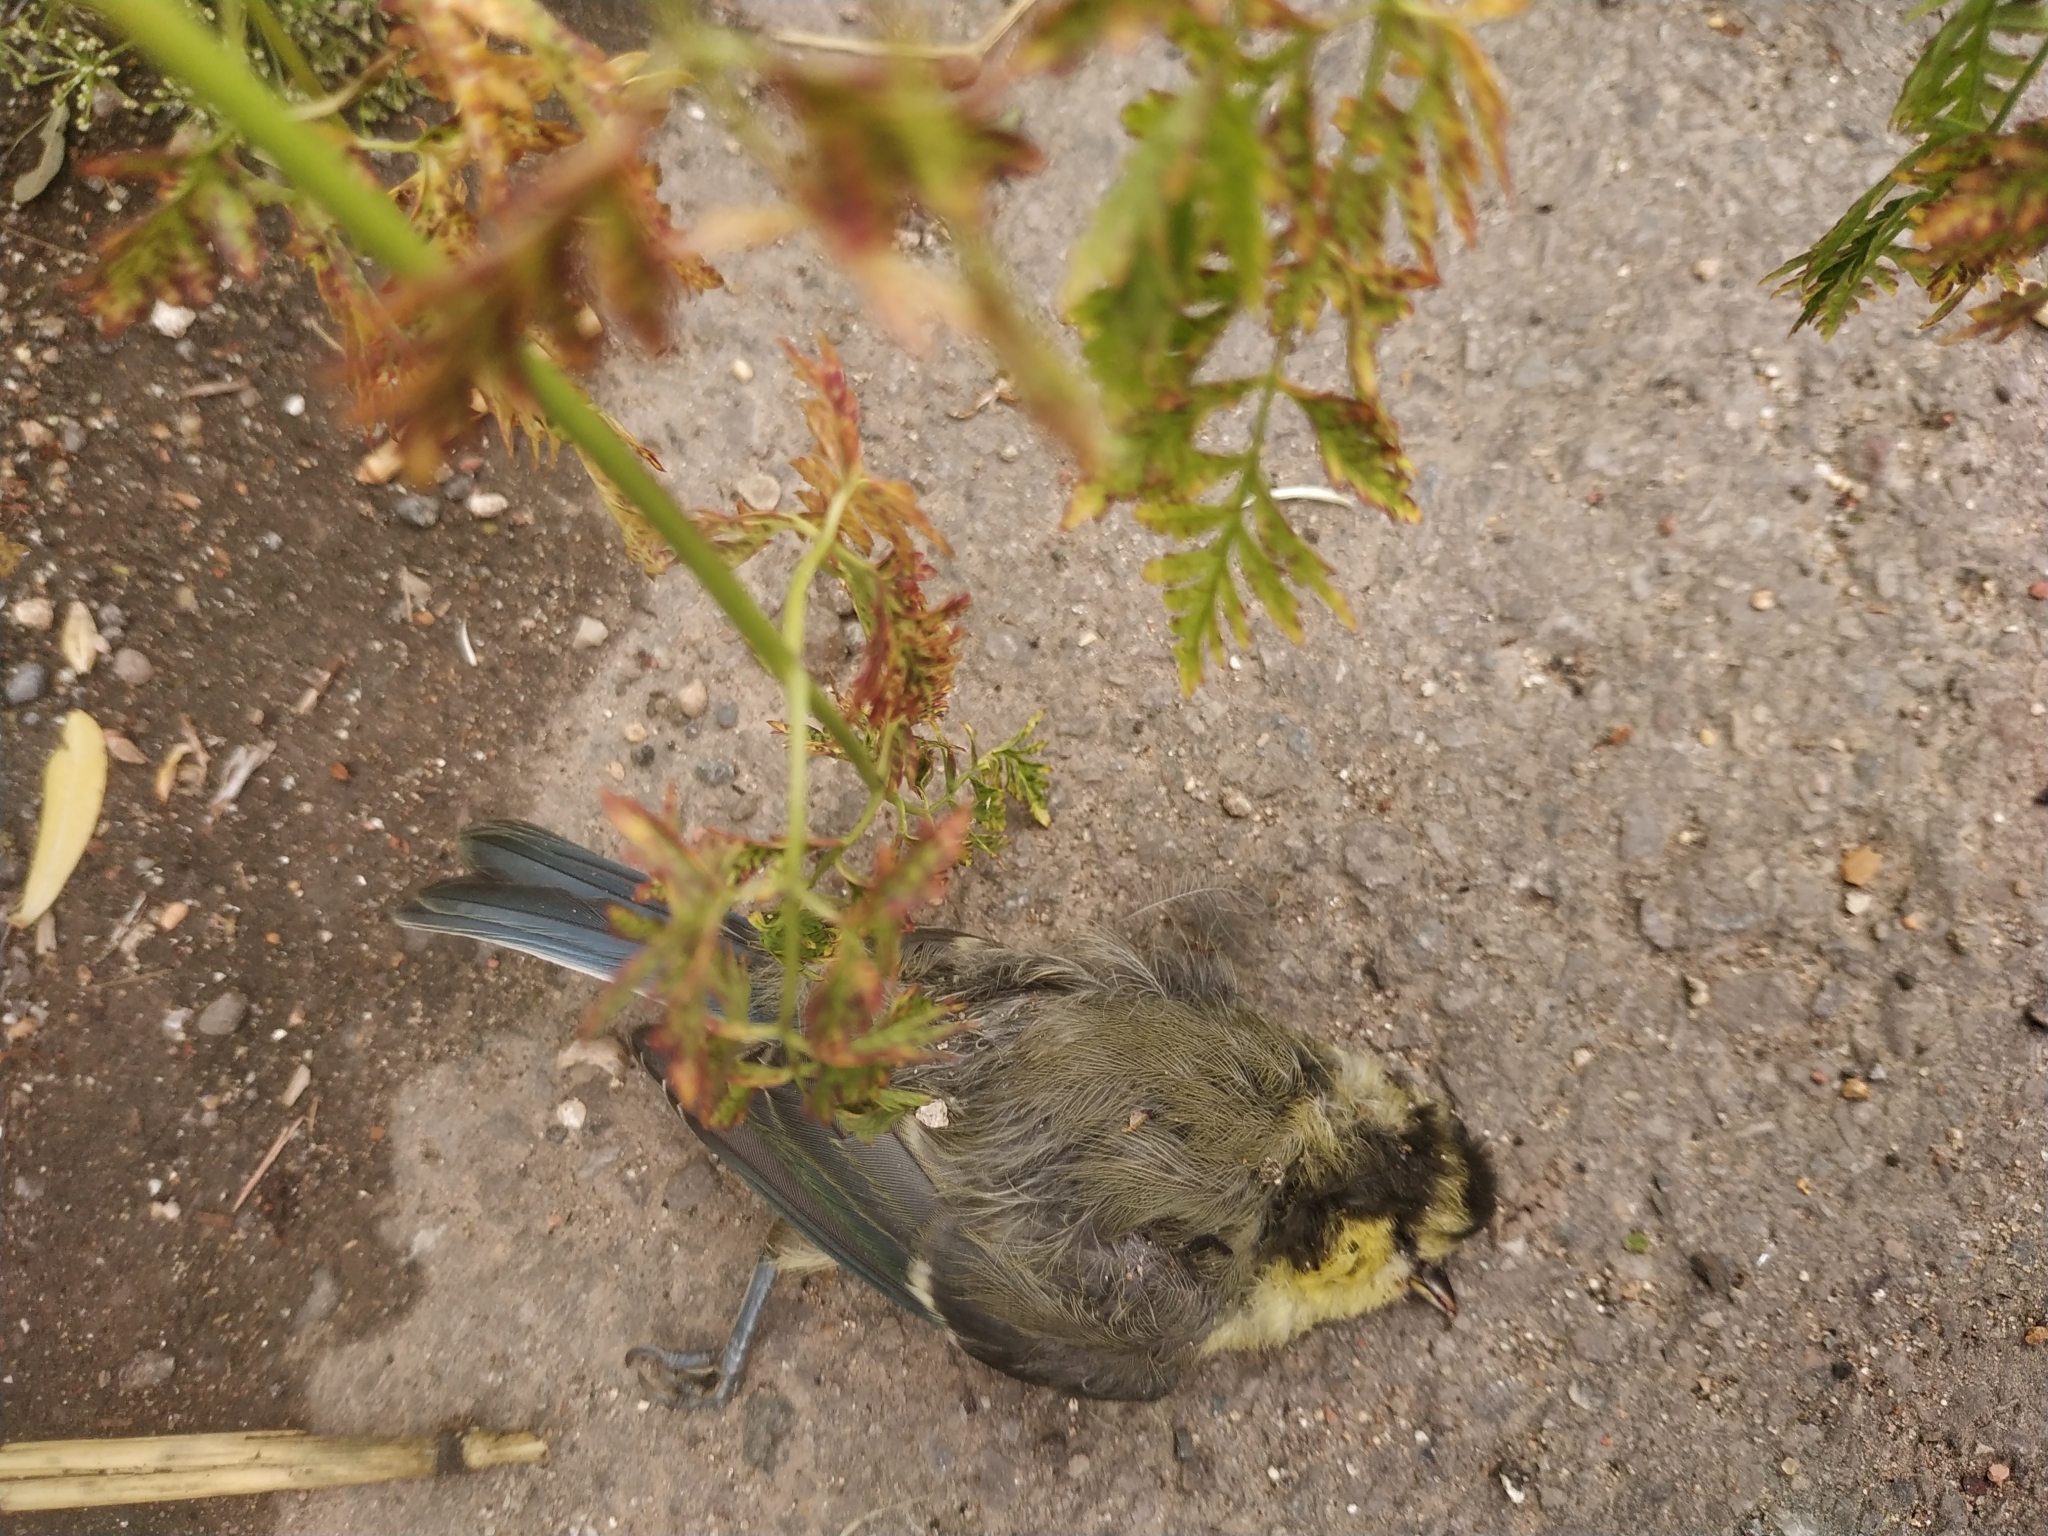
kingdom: Animalia
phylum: Chordata
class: Aves
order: Passeriformes
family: Paridae
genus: Cyanistes
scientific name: Cyanistes caeruleus
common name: Eurasian blue tit
